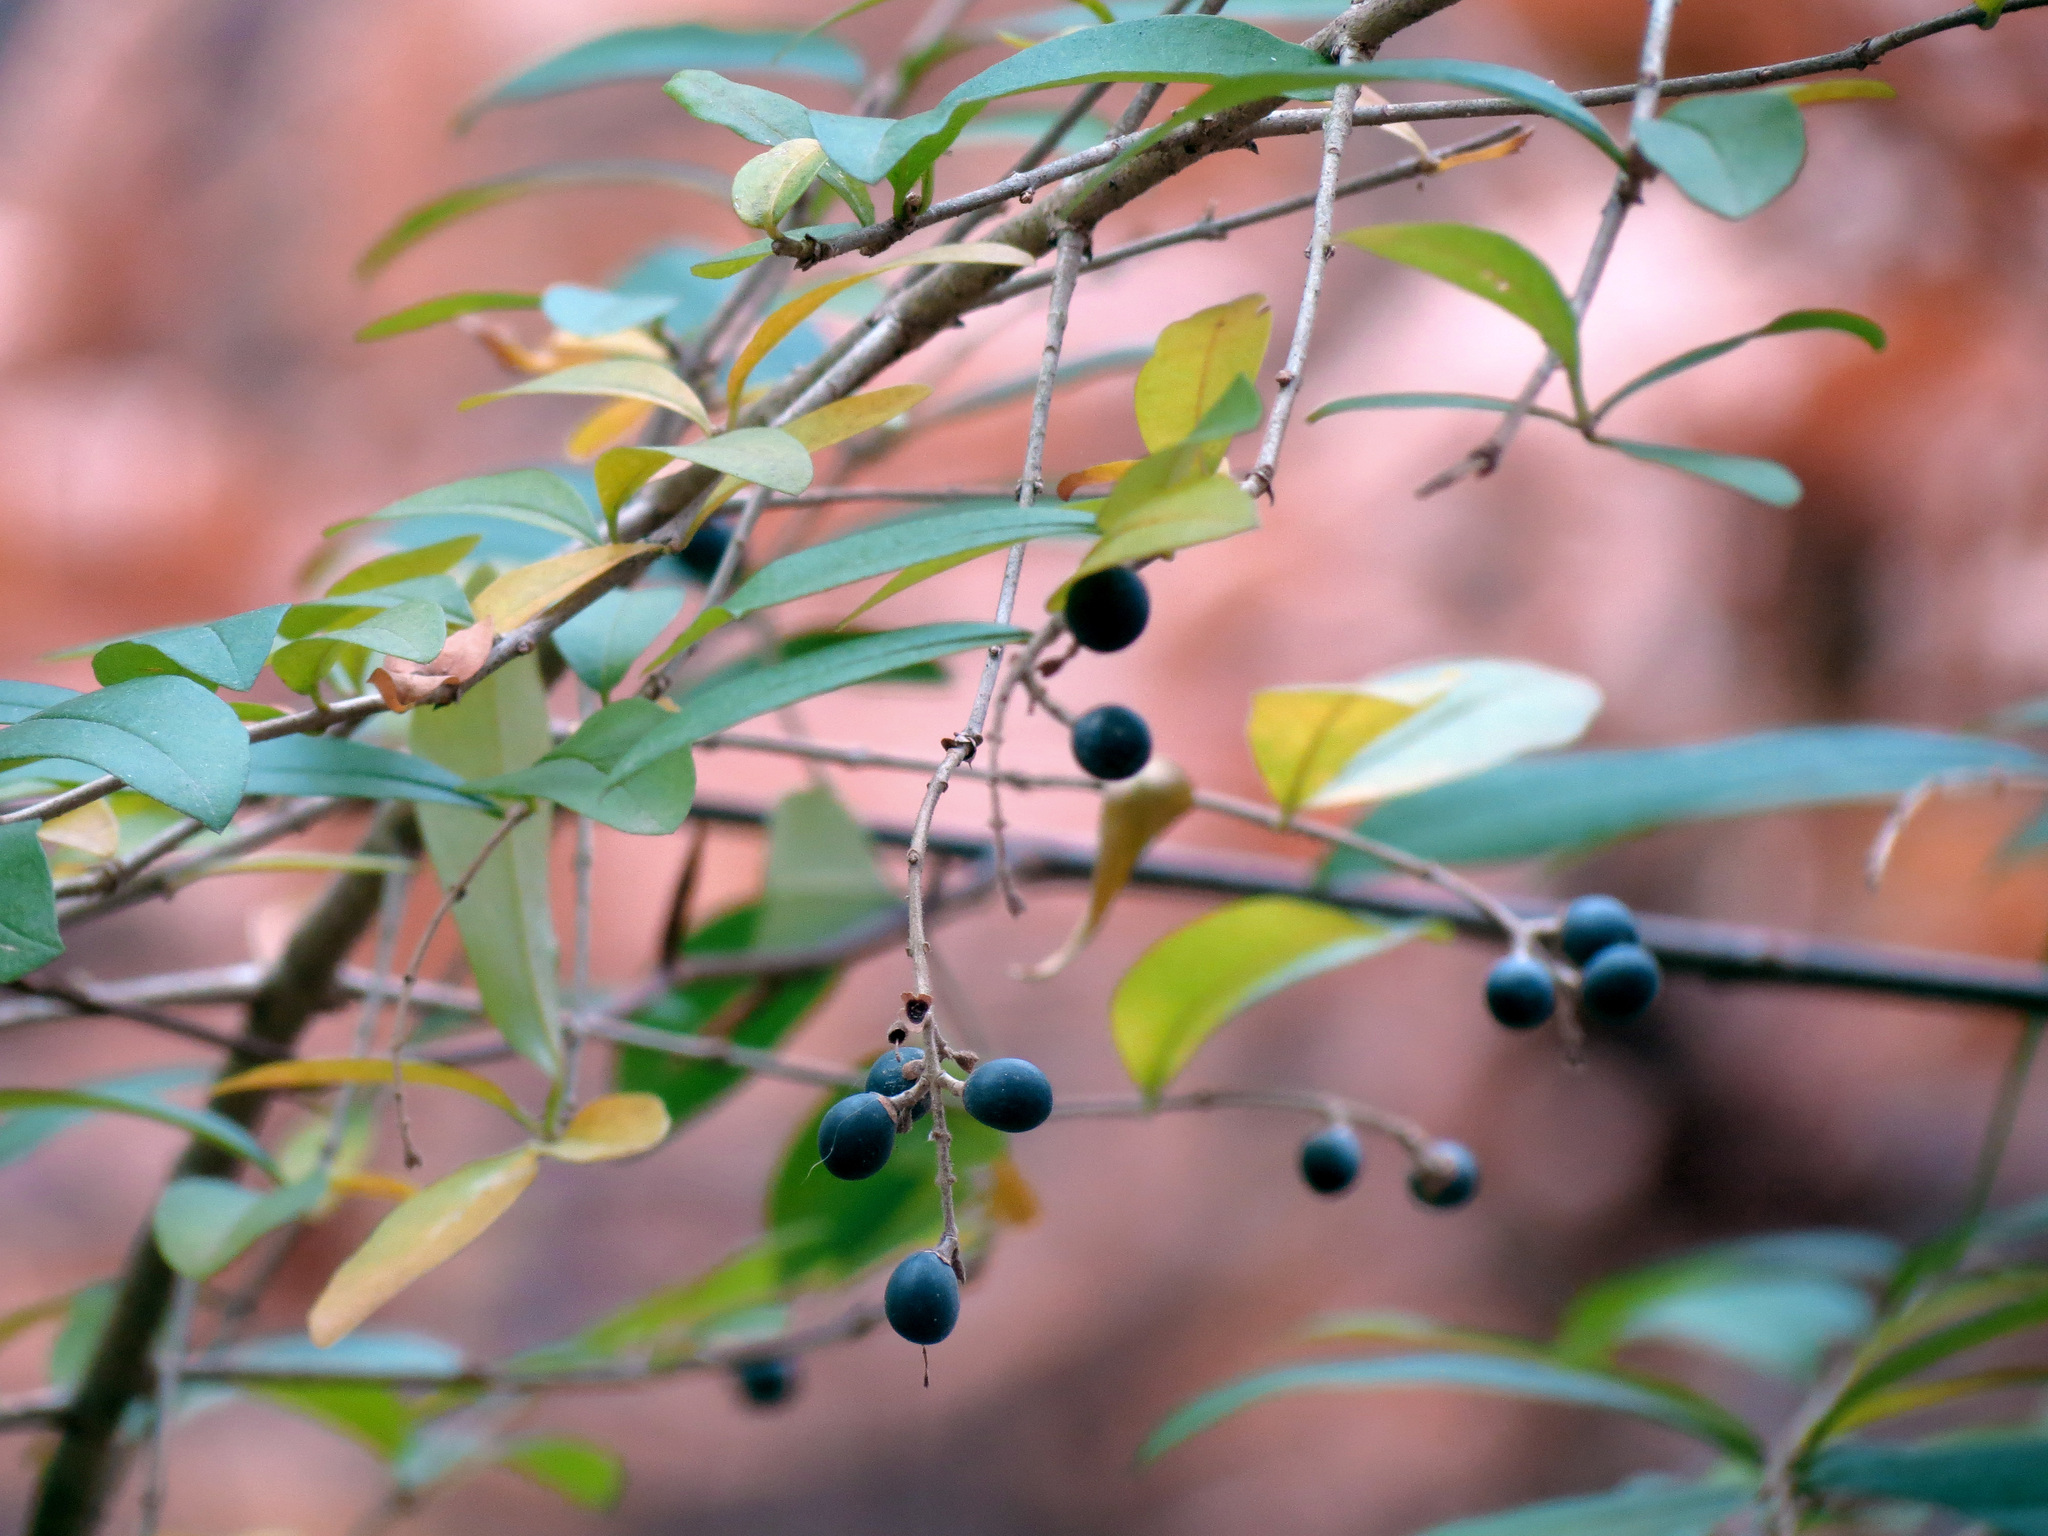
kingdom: Plantae
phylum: Tracheophyta
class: Magnoliopsida
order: Lamiales
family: Oleaceae
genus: Ligustrum
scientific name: Ligustrum obtusifolium
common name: Border privet
